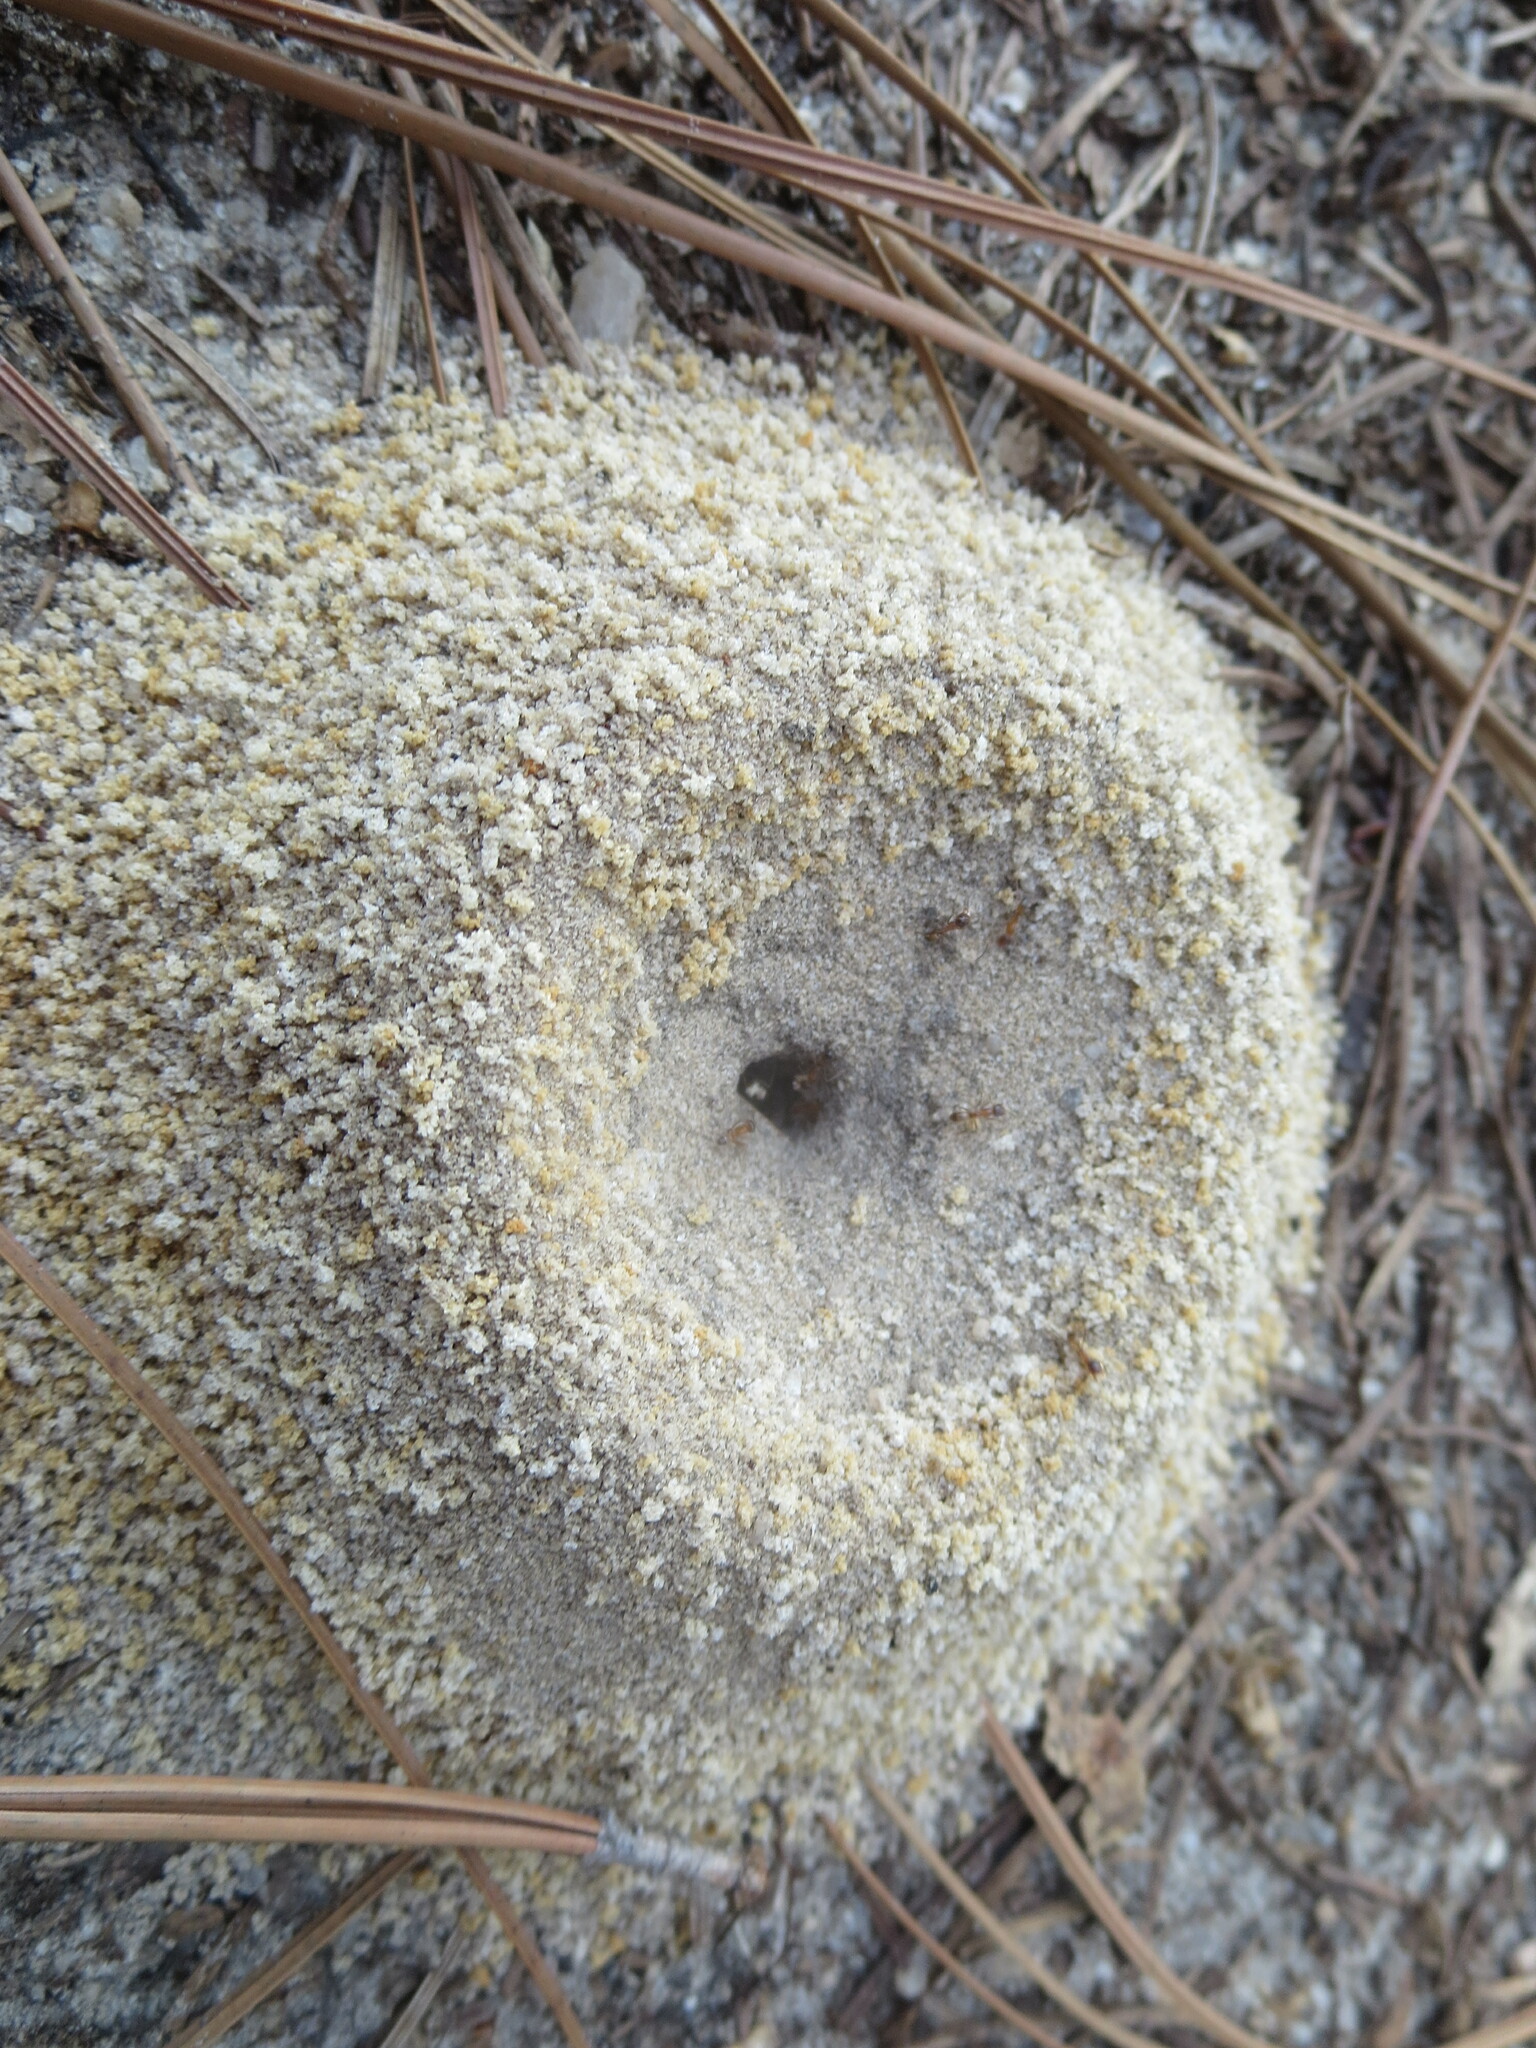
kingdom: Animalia
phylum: Arthropoda
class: Insecta
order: Hymenoptera
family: Formicidae
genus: Dorymyrmex
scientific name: Dorymyrmex bureni
